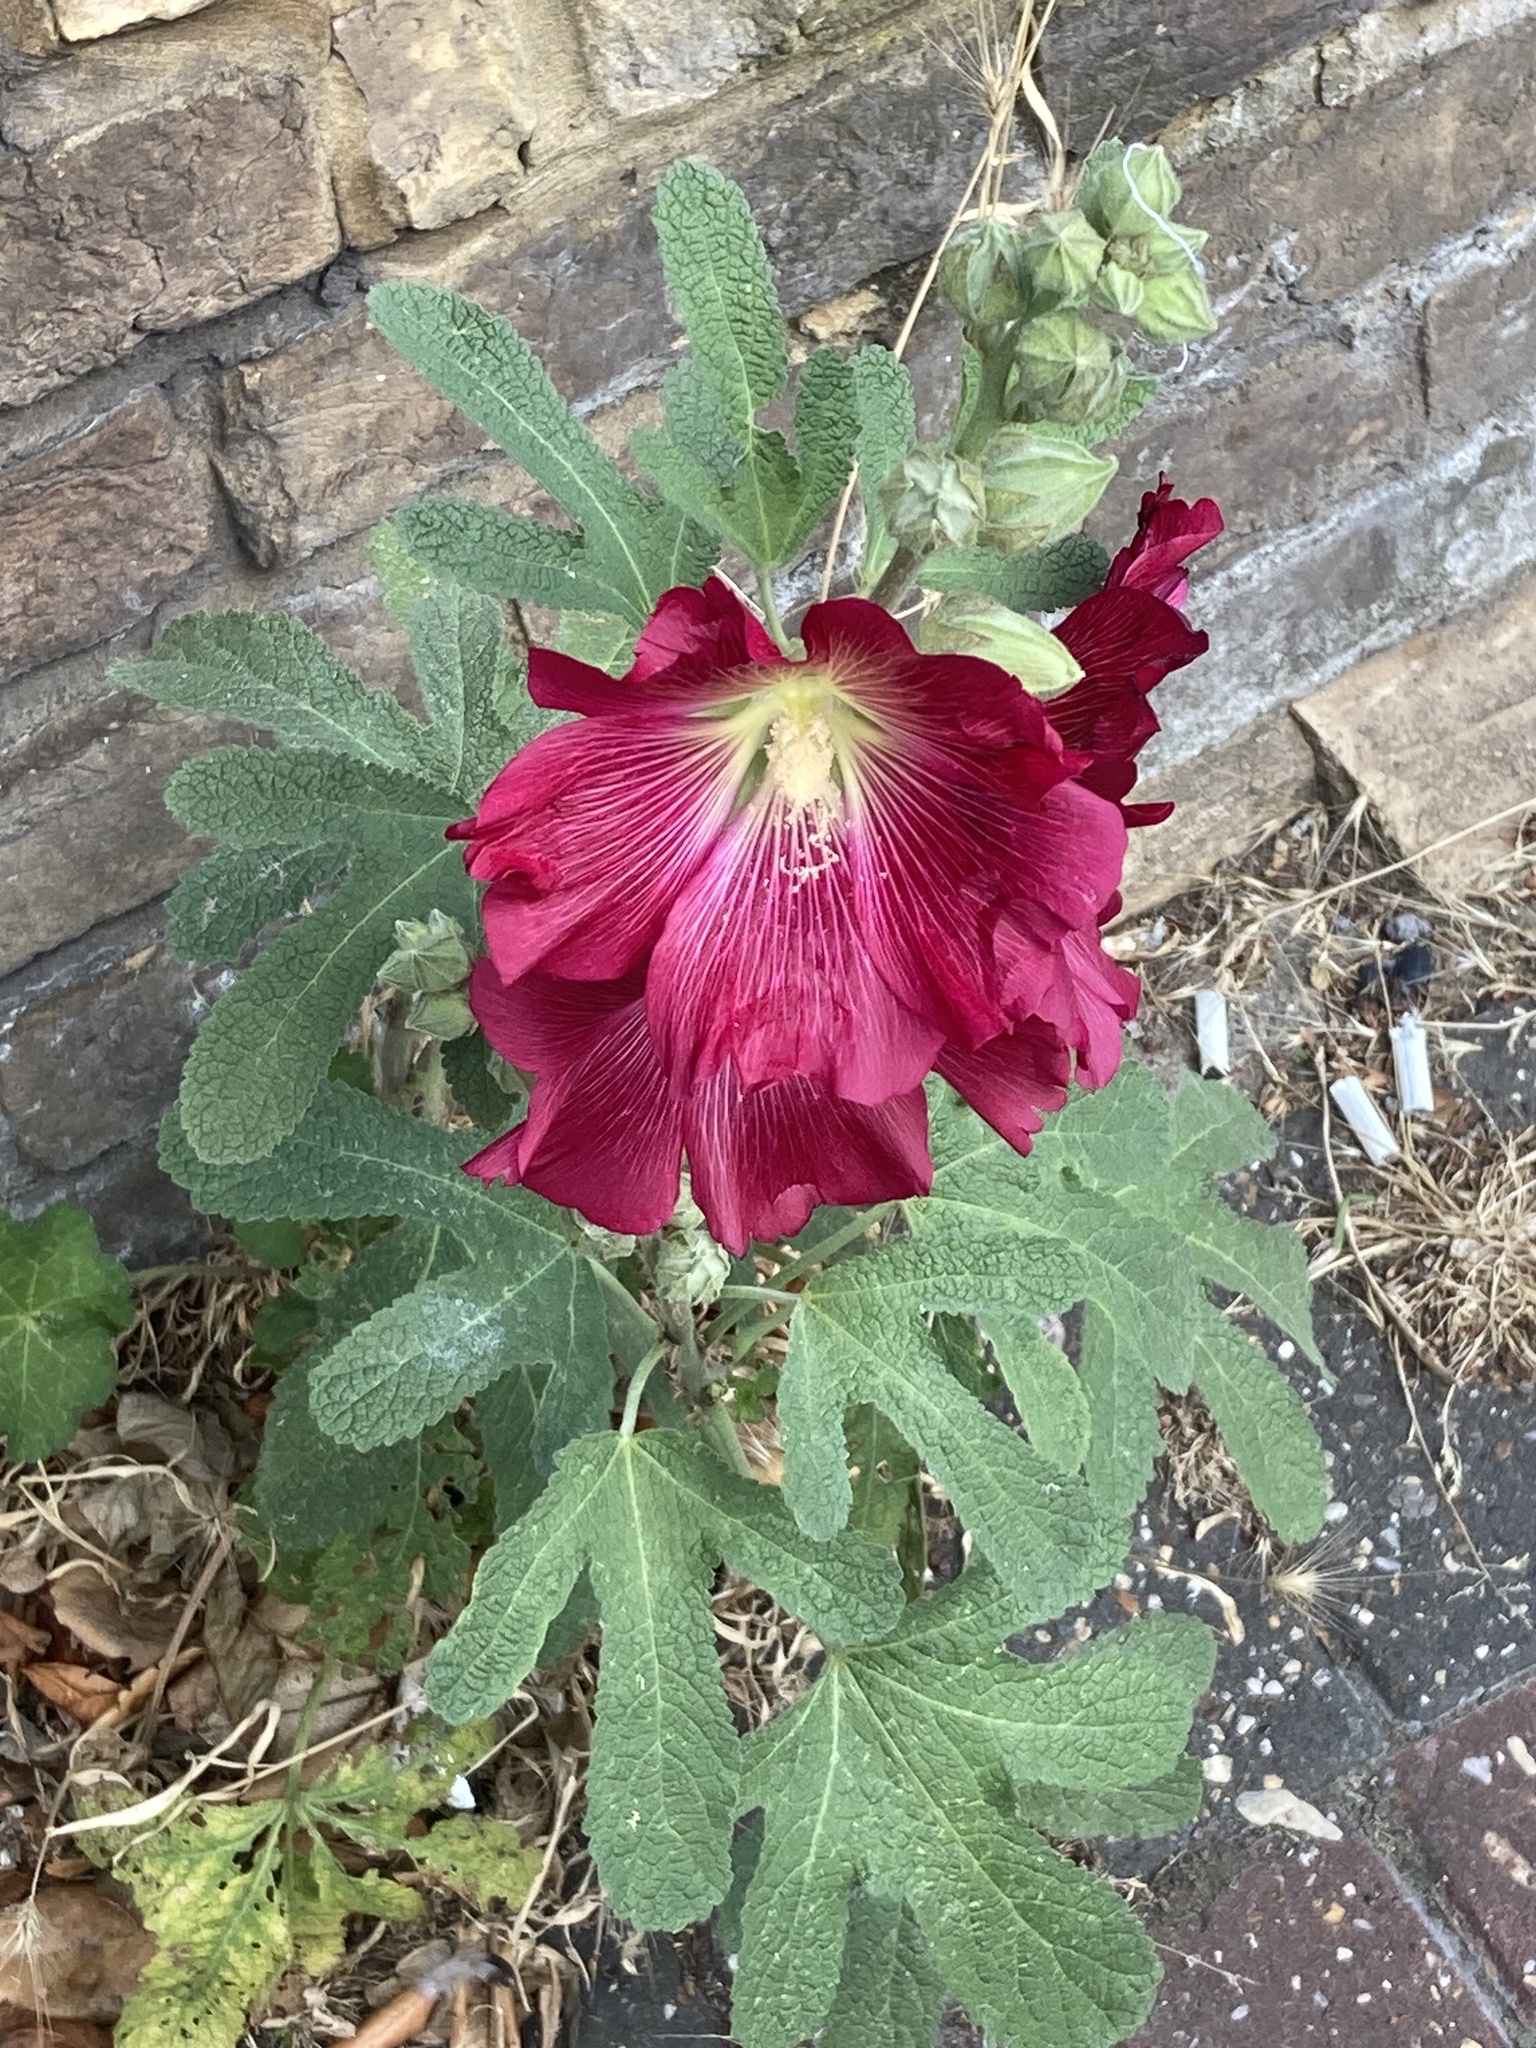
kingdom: Plantae
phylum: Tracheophyta
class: Magnoliopsida
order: Malvales
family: Malvaceae
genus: Alcea
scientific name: Alcea rosea
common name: Hollyhock
